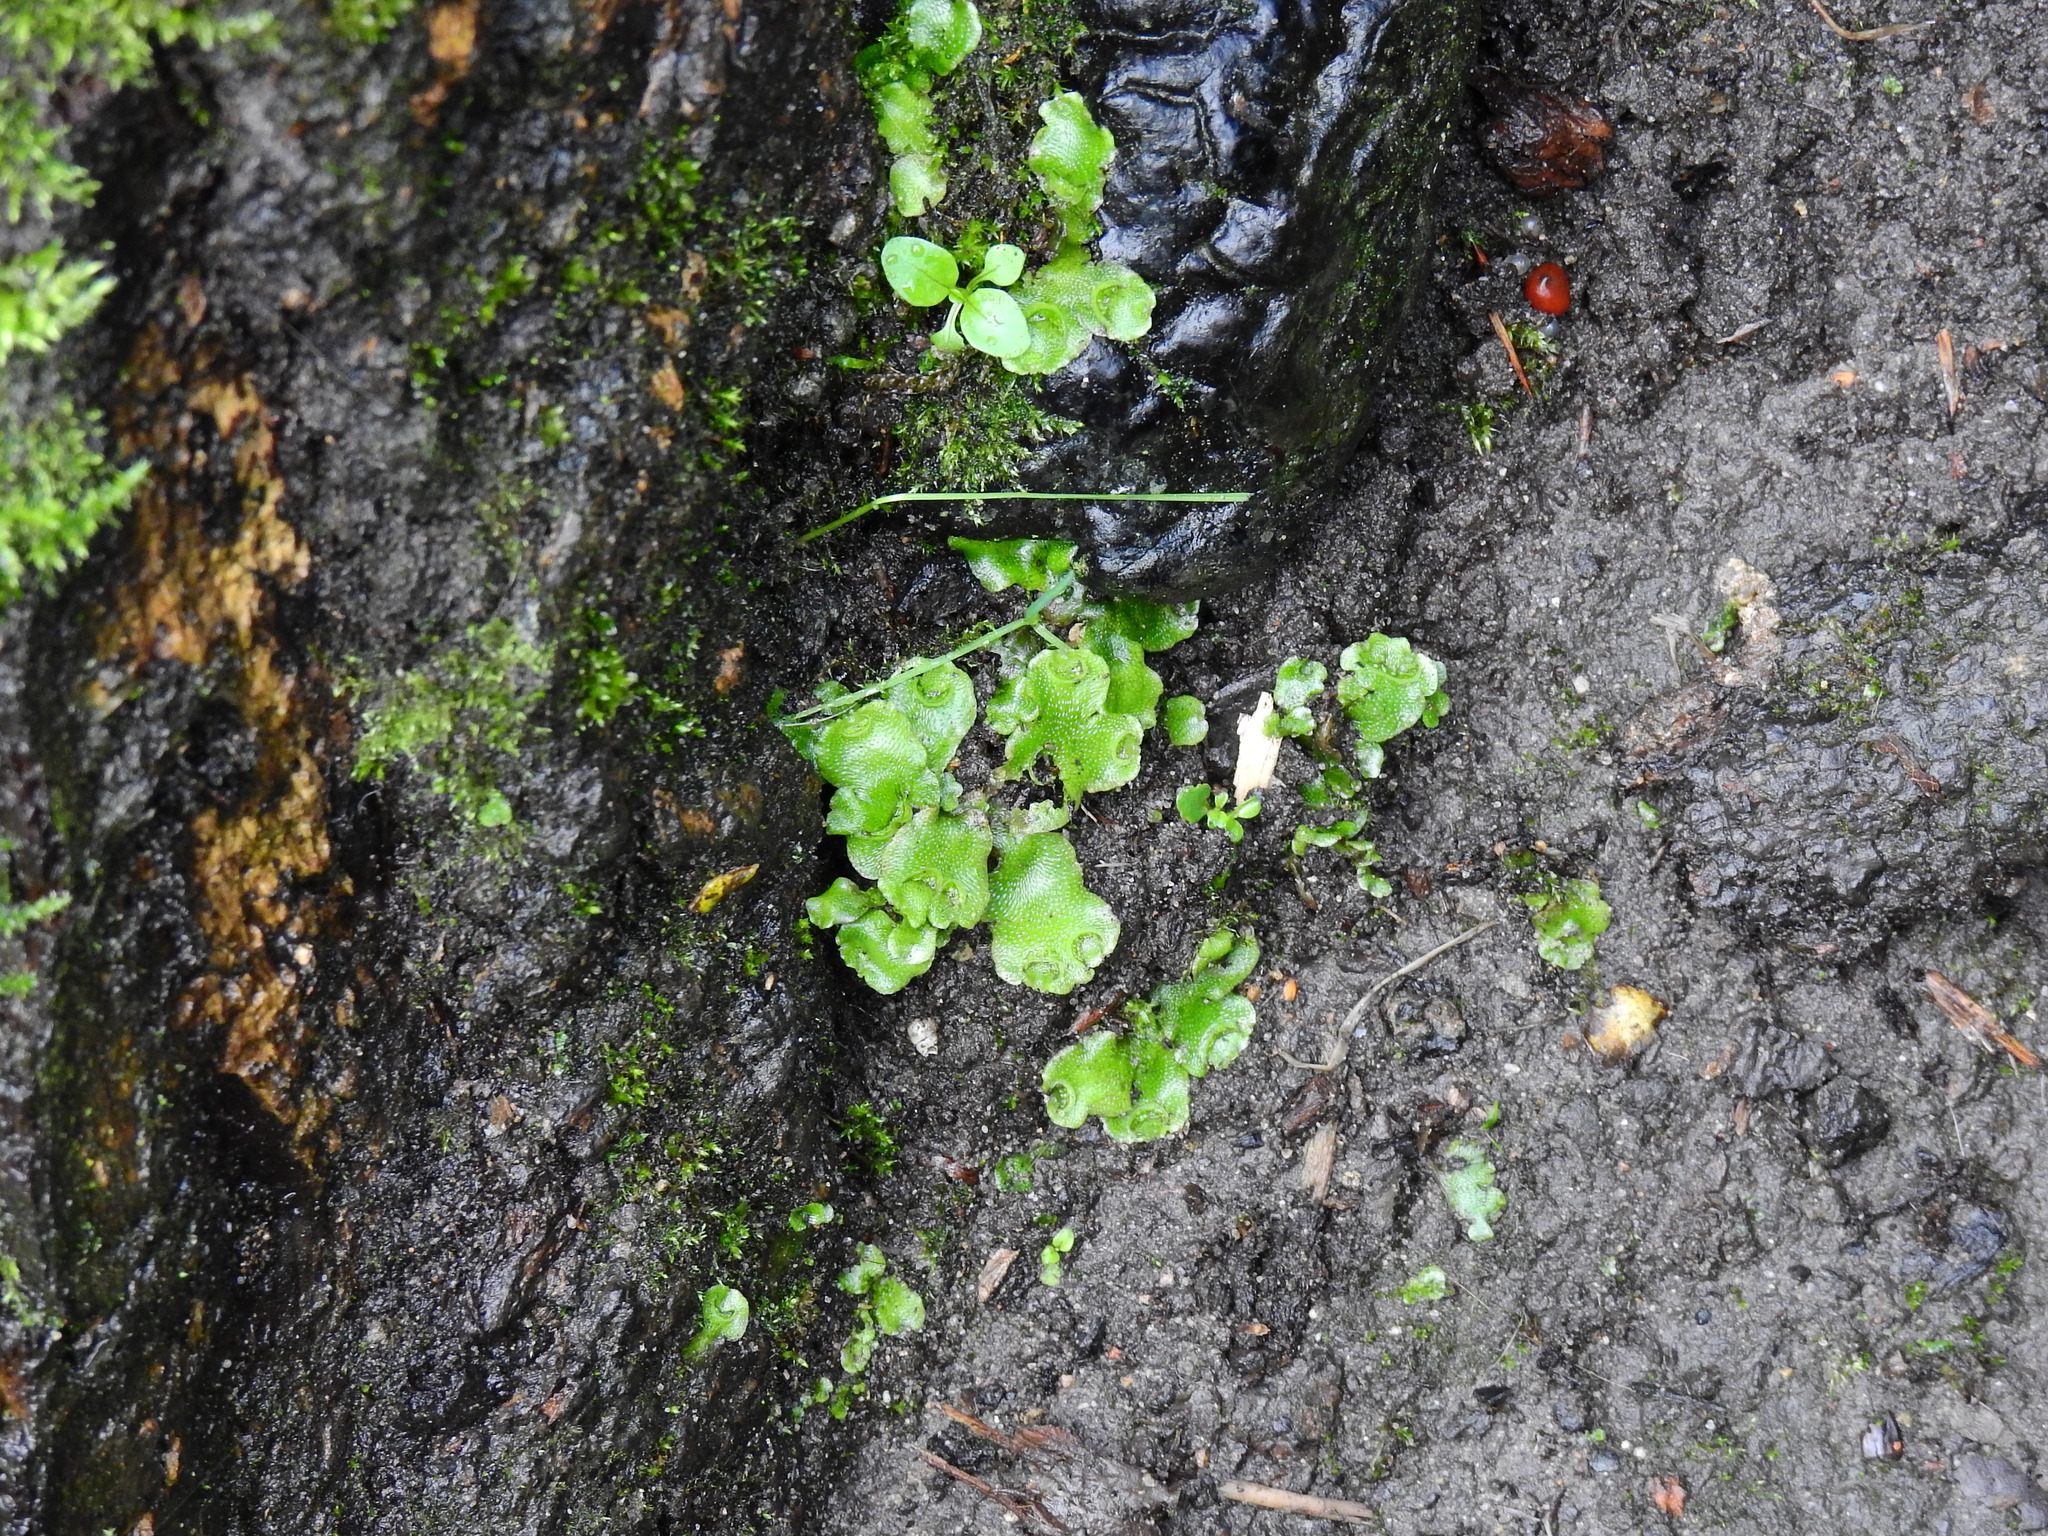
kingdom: Plantae
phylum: Marchantiophyta
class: Marchantiopsida
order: Lunulariales
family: Lunulariaceae
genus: Lunularia
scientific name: Lunularia cruciata
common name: Crescent-cup liverwort
